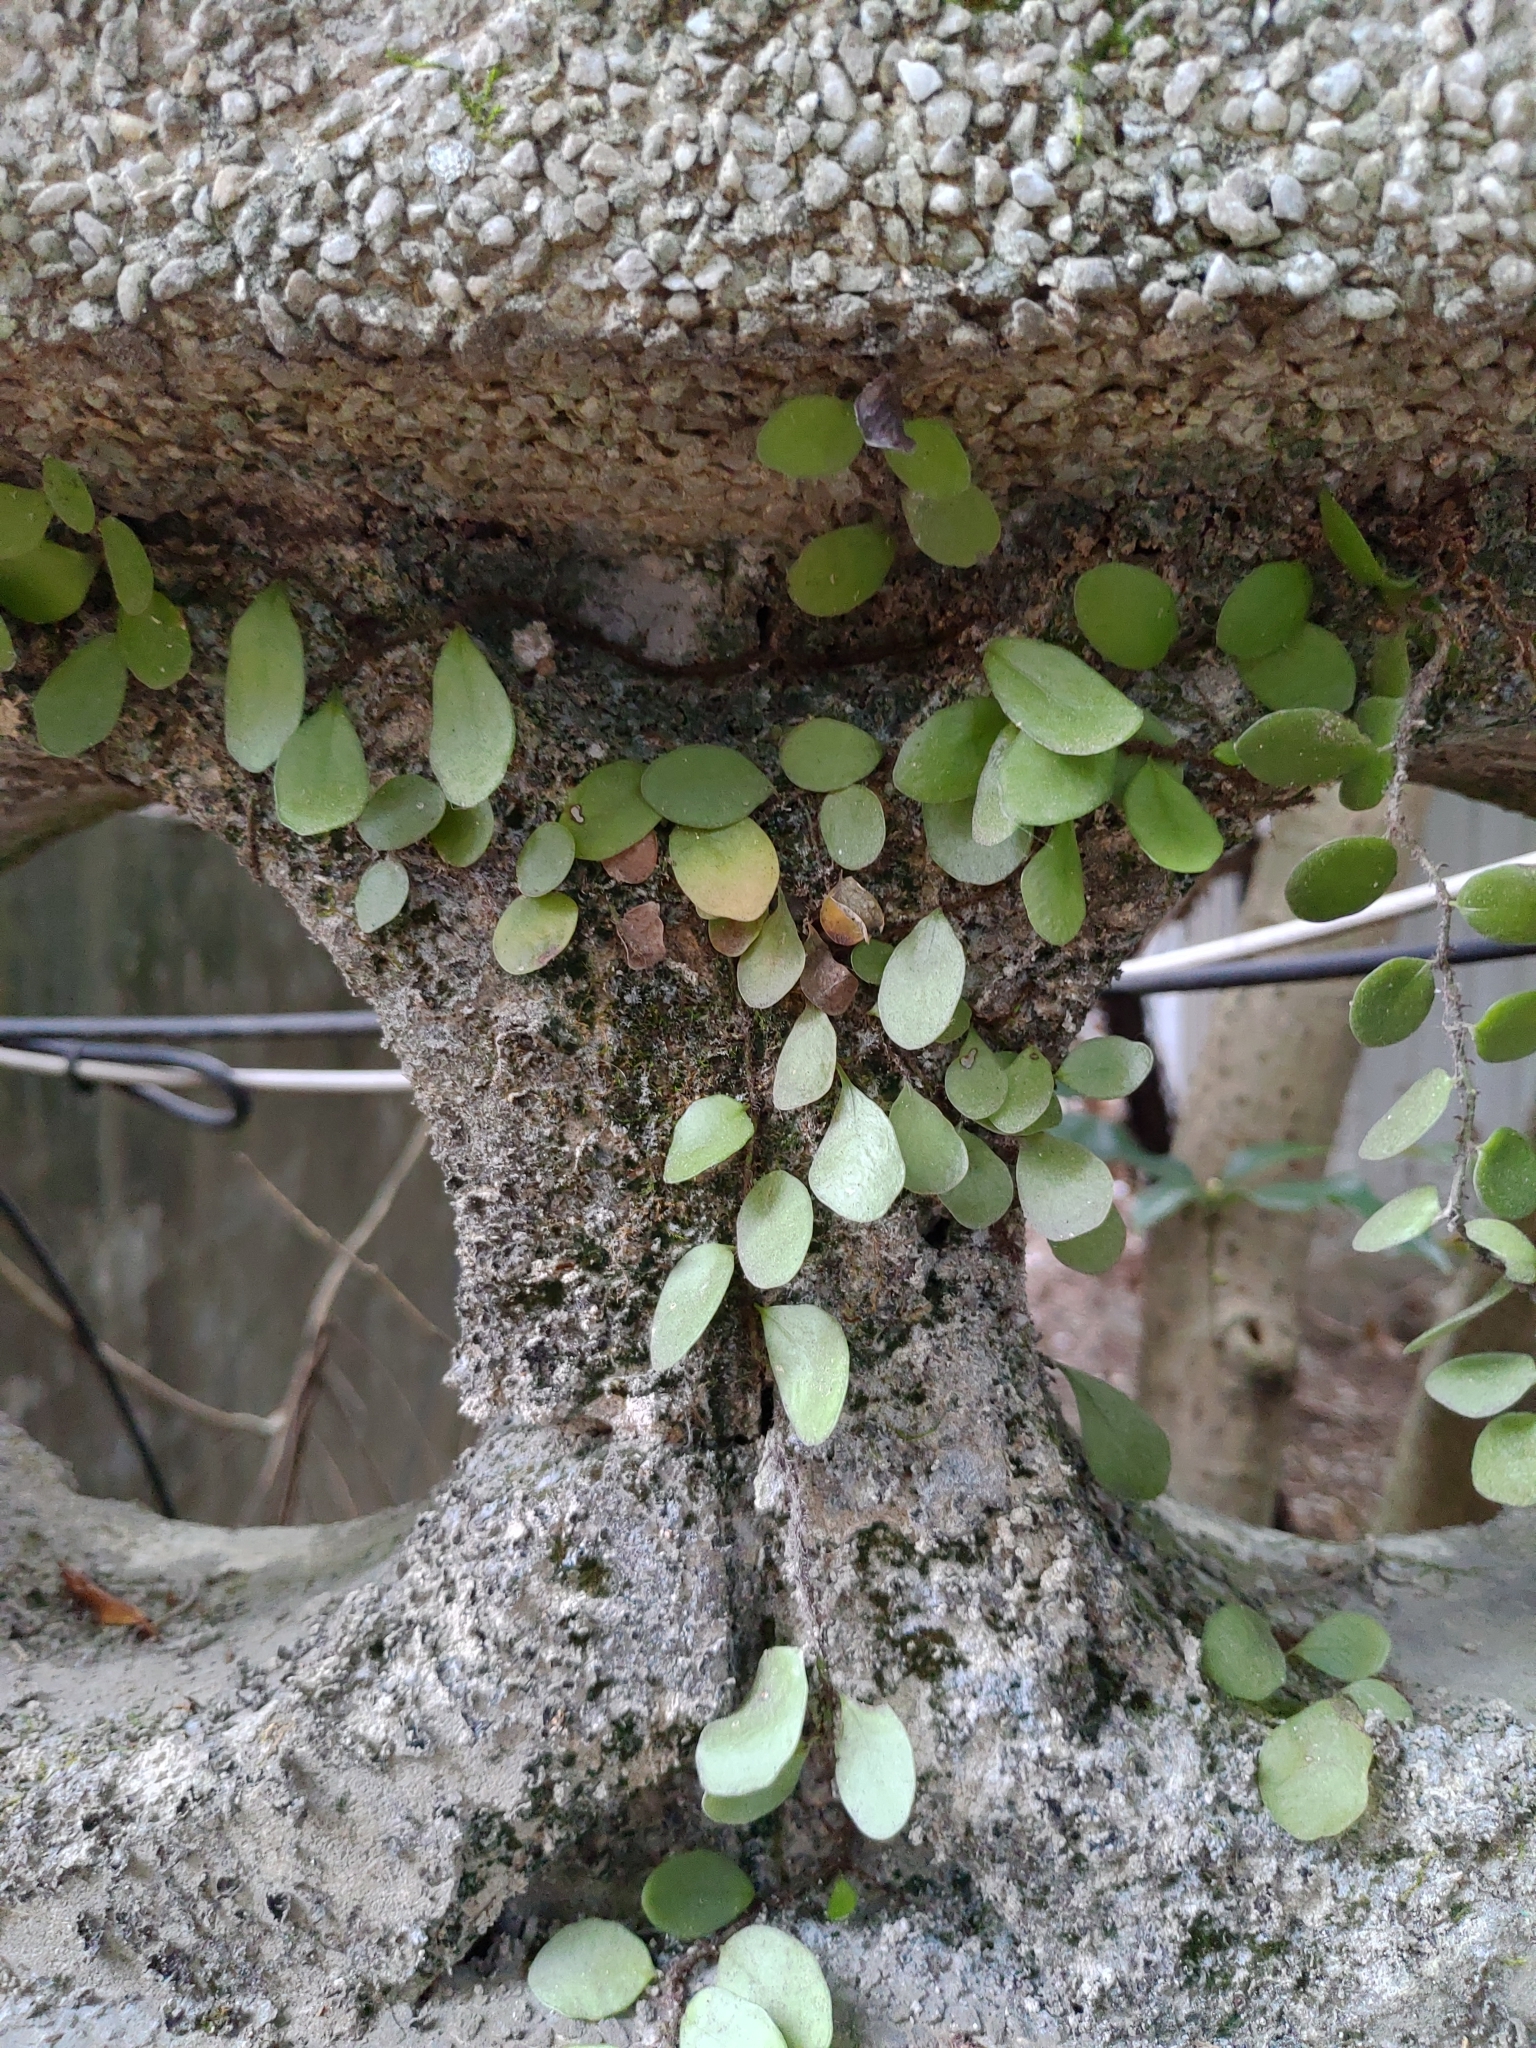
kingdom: Plantae
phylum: Tracheophyta
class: Polypodiopsida
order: Polypodiales
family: Polypodiaceae
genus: Lepisorus
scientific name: Lepisorus microphyllus
